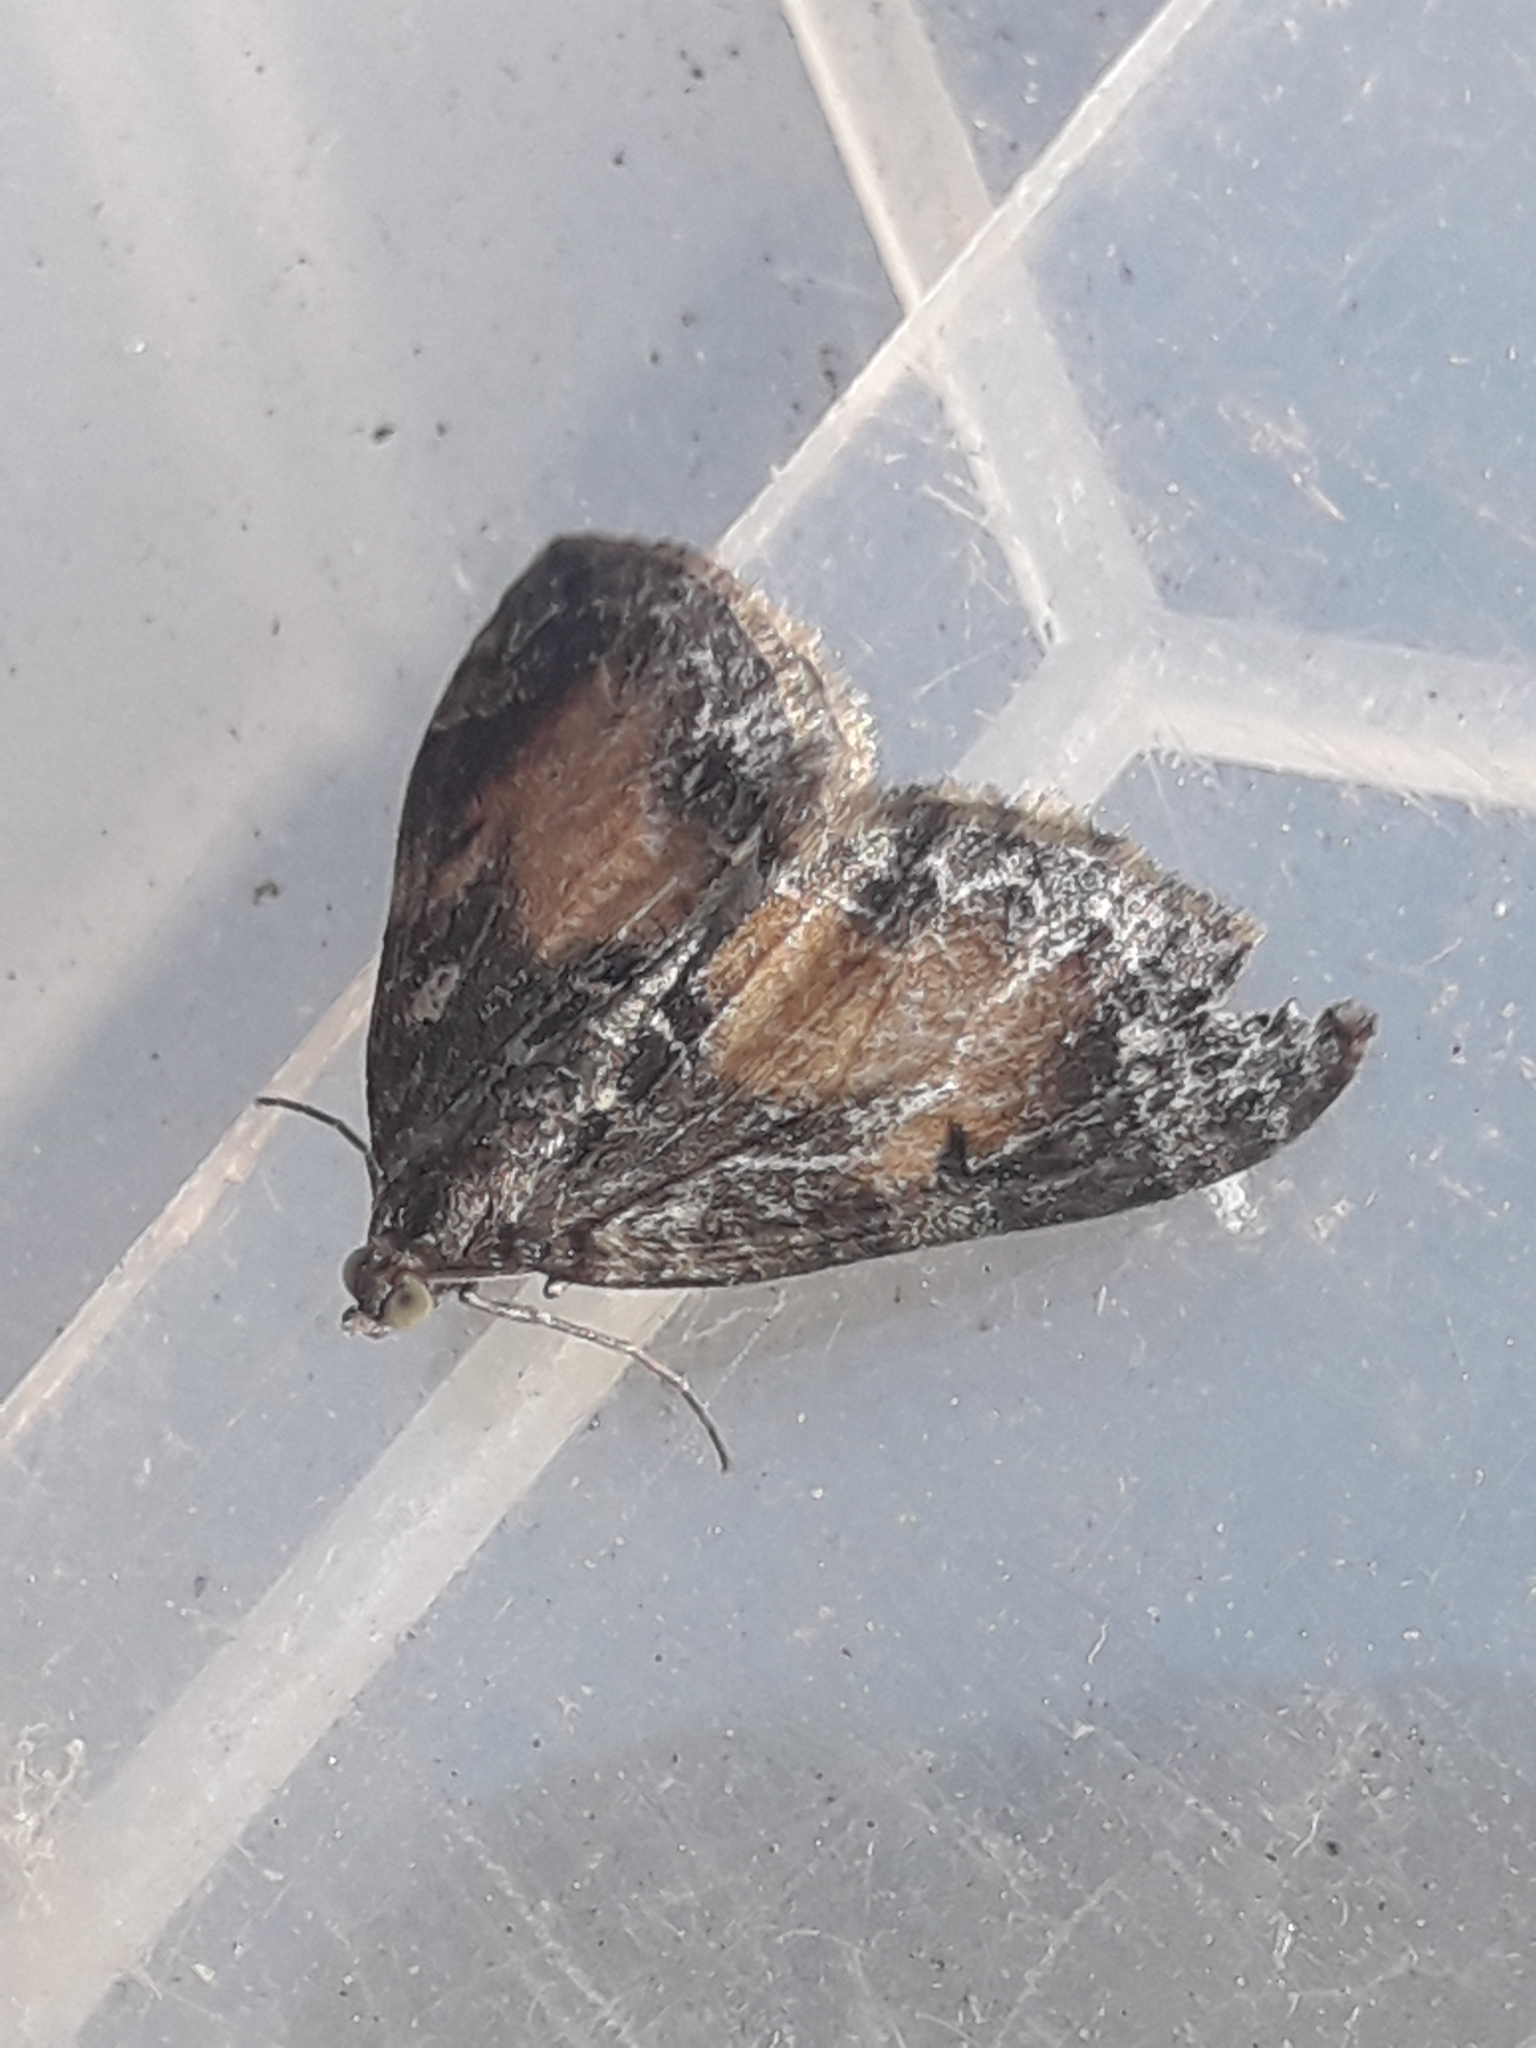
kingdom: Animalia
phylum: Arthropoda
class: Insecta
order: Lepidoptera
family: Geometridae
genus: Dysstroma
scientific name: Dysstroma truncata
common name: Common marbled carpet
